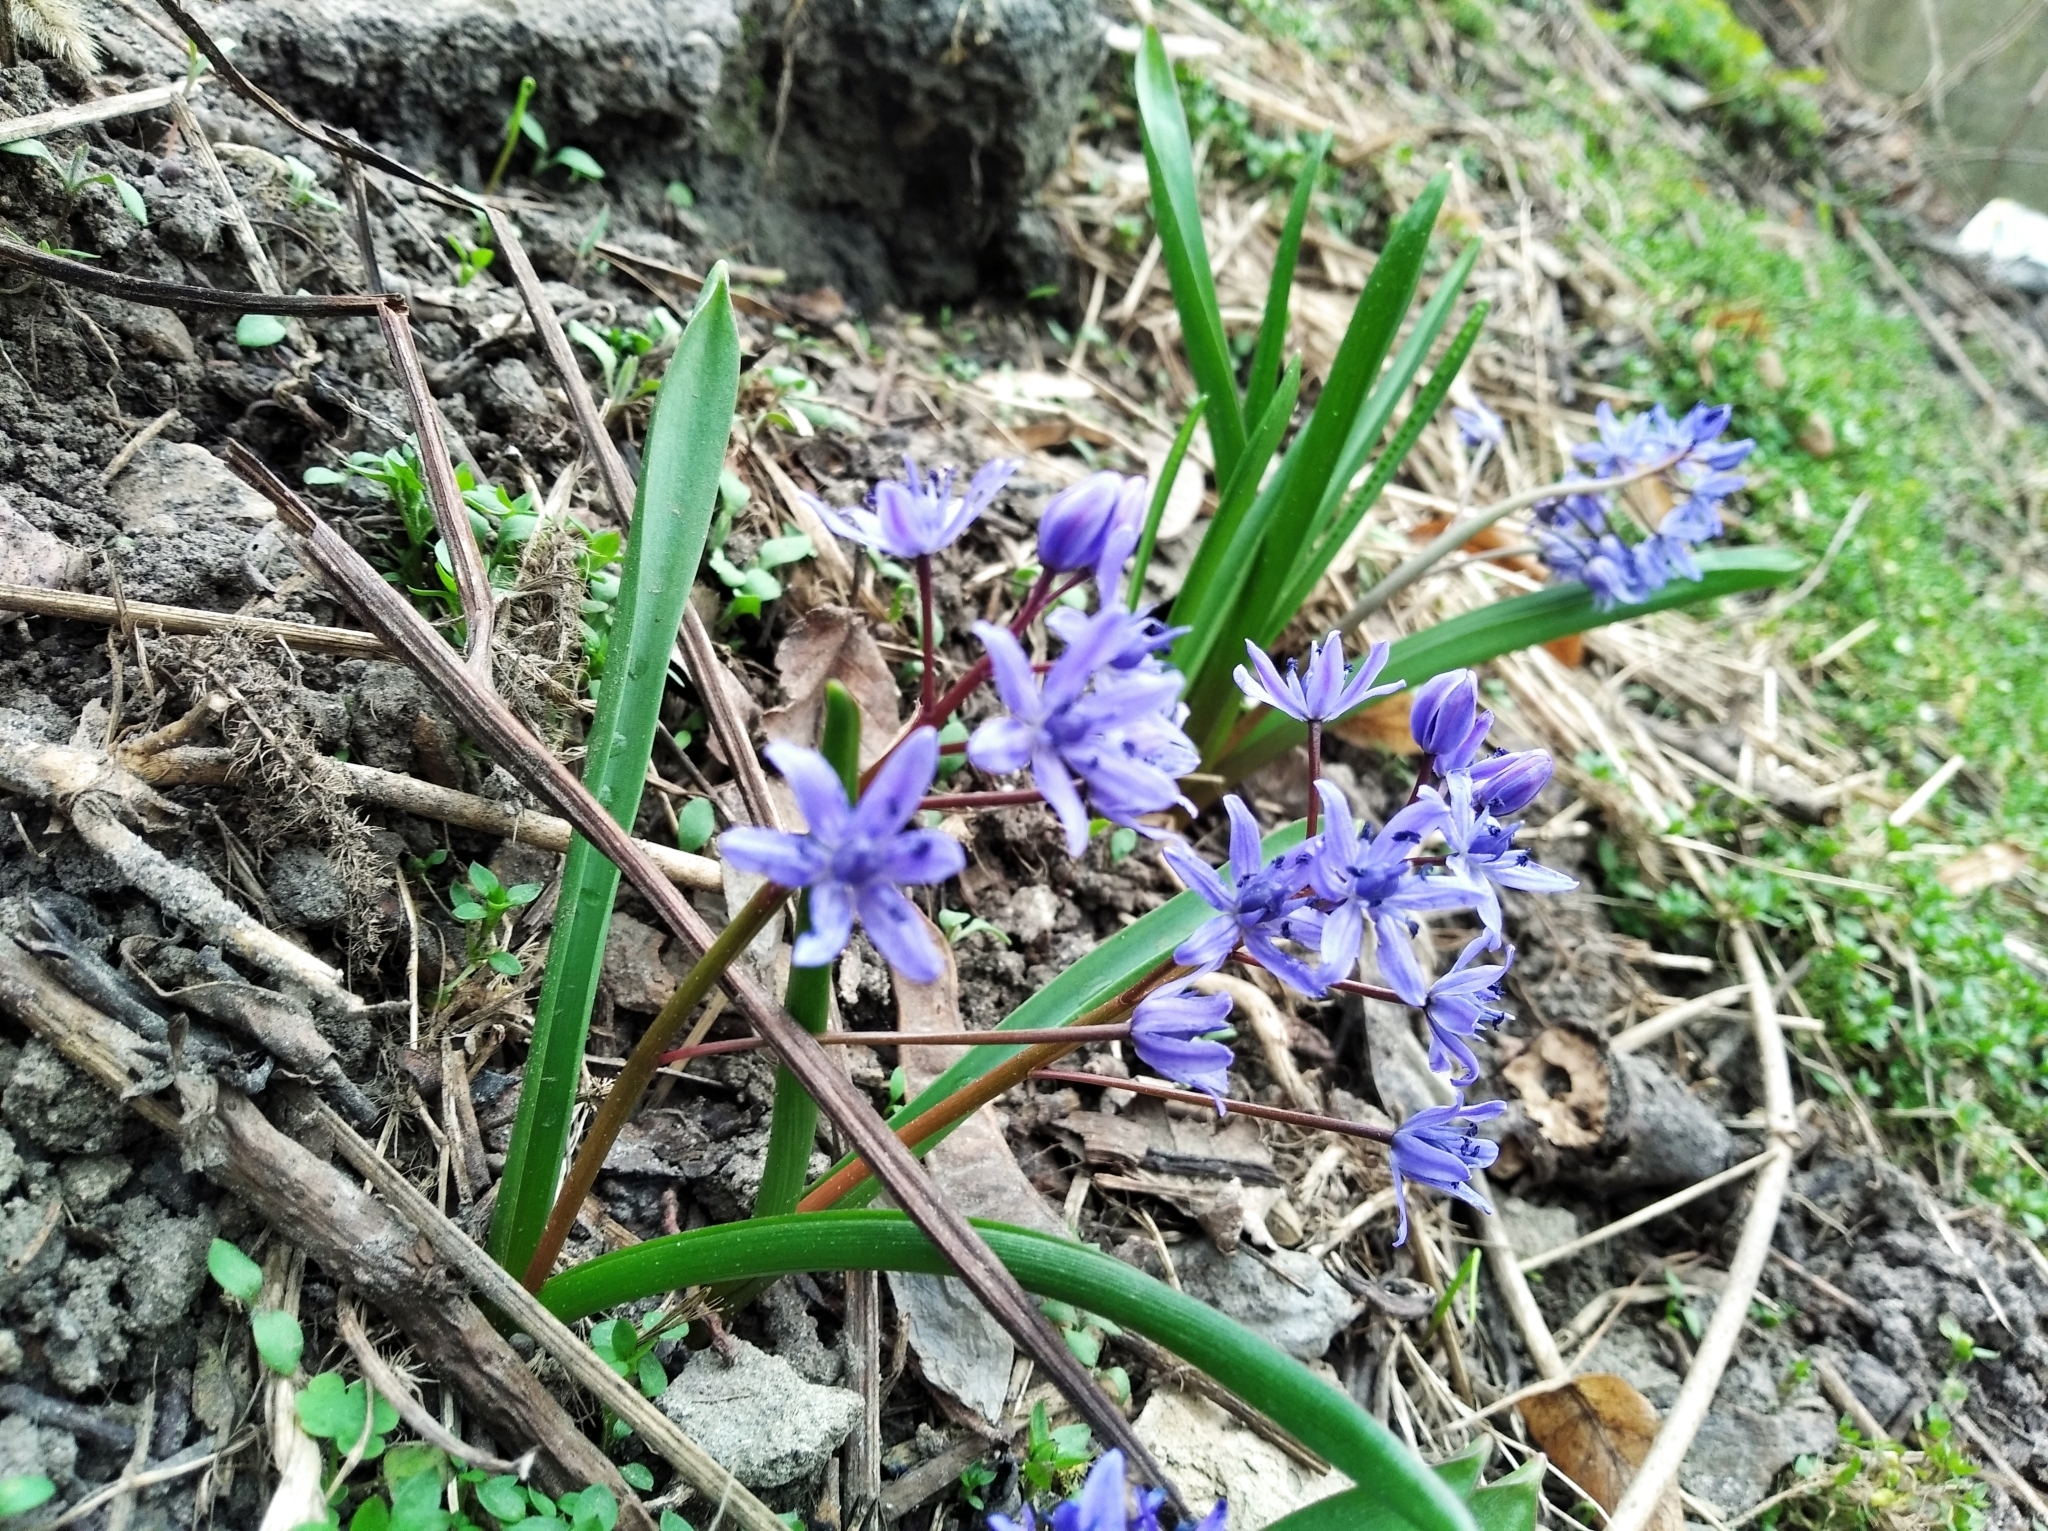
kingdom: Plantae
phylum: Tracheophyta
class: Liliopsida
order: Asparagales
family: Asparagaceae
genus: Scilla
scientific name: Scilla bifolia
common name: Alpine squill
